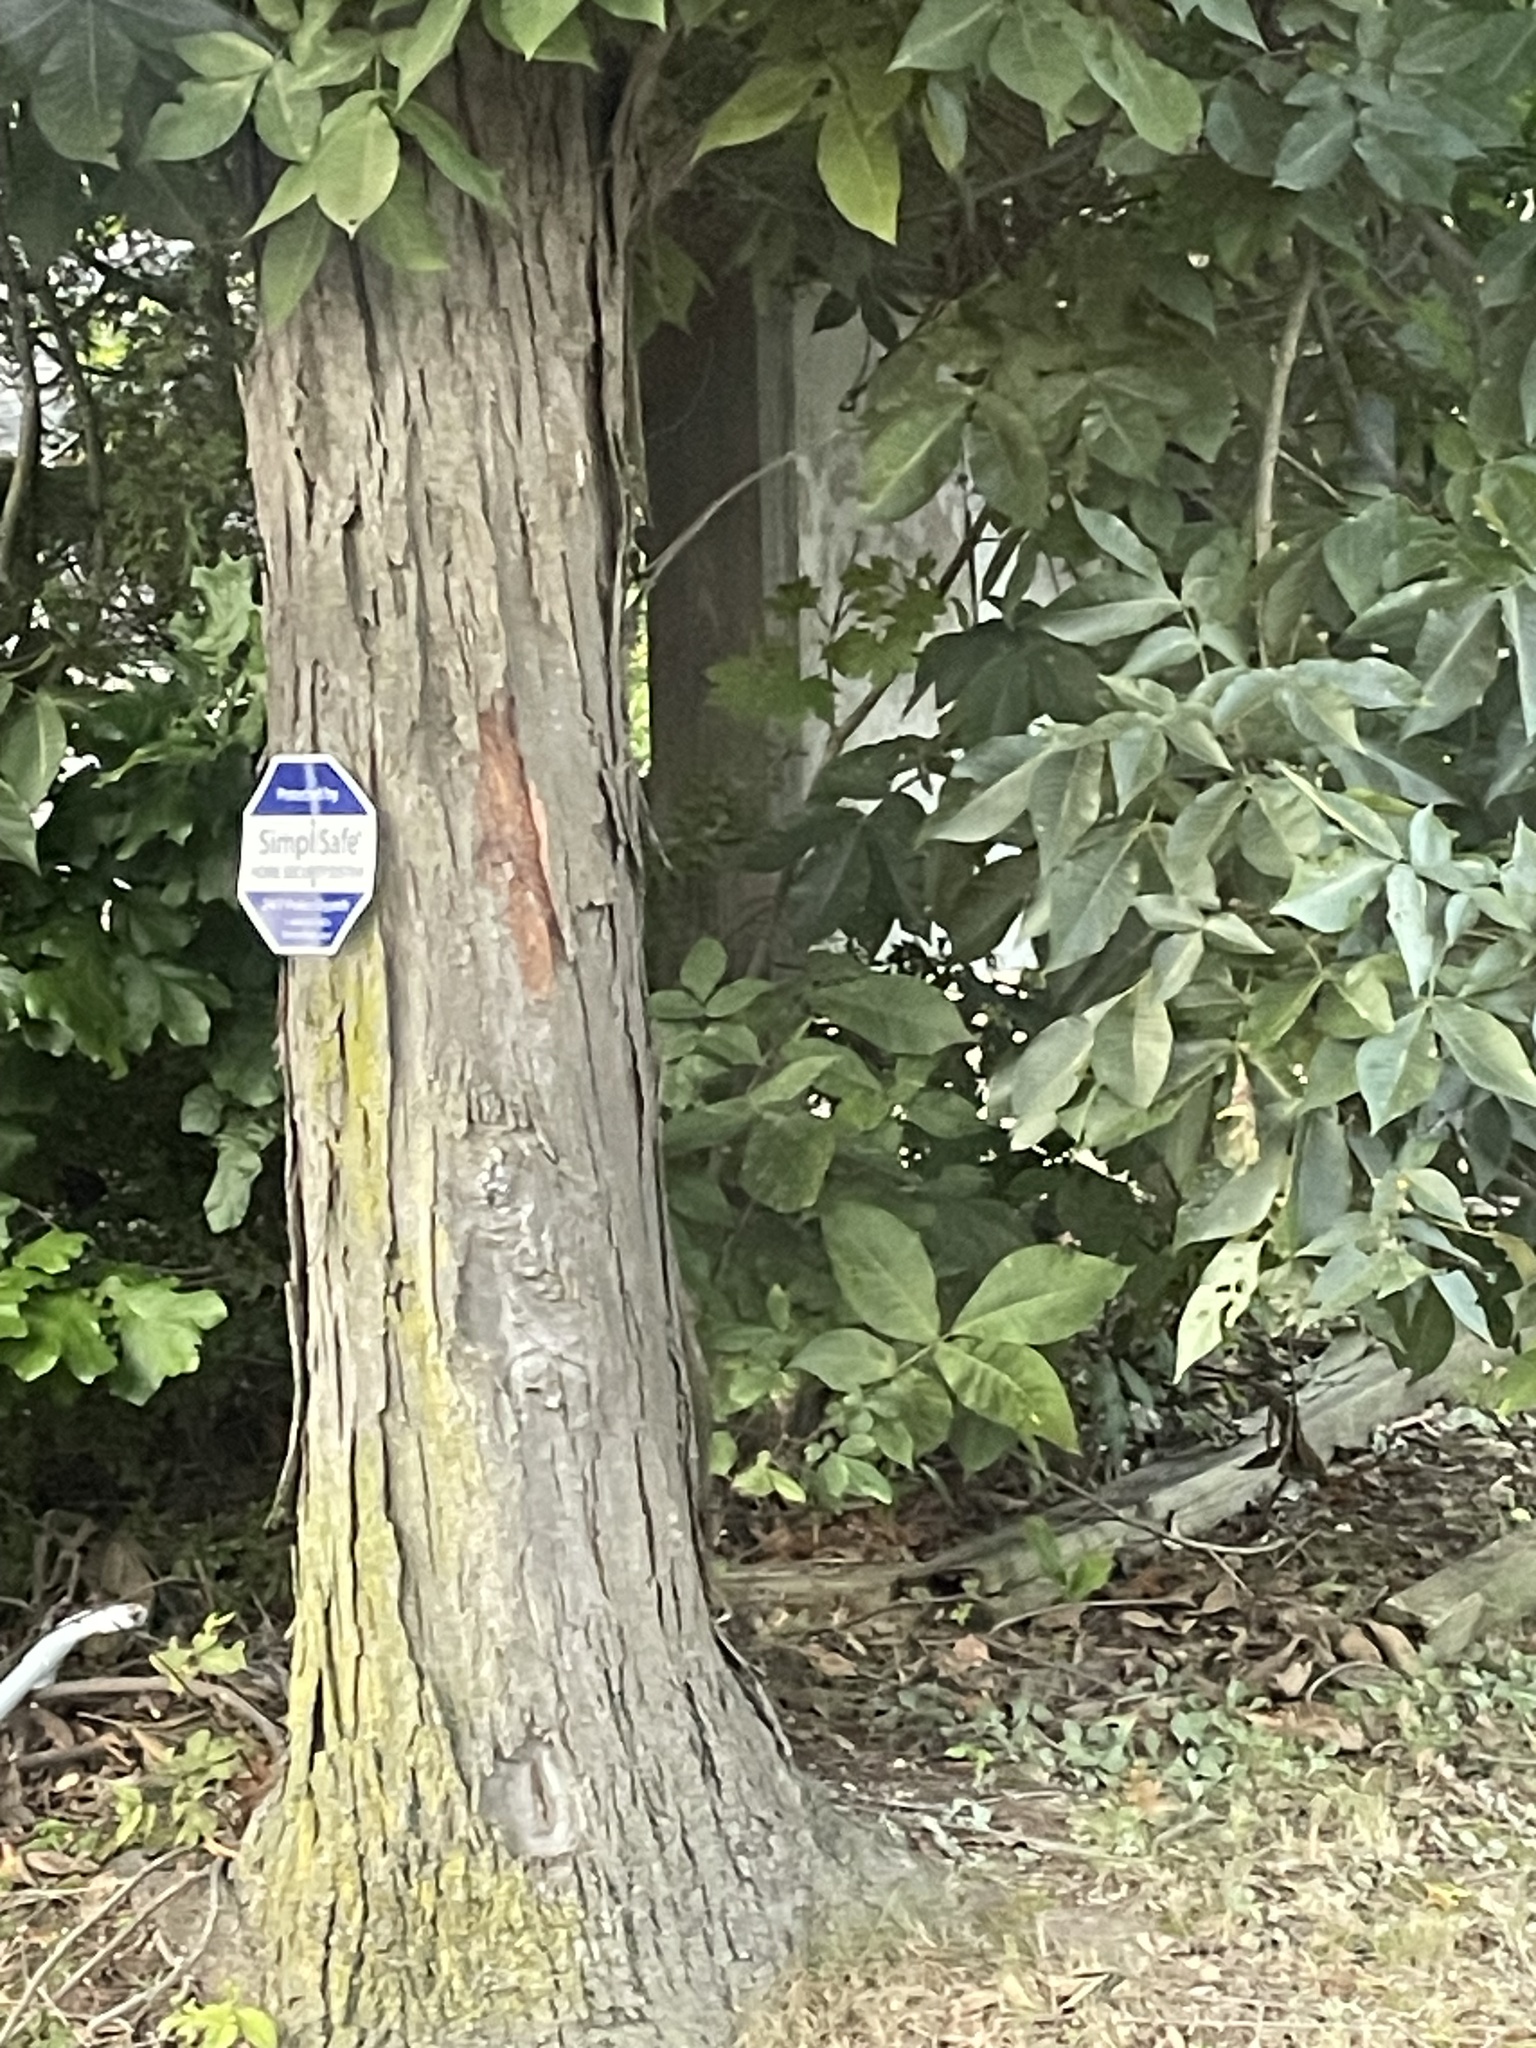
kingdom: Plantae
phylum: Tracheophyta
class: Magnoliopsida
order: Fagales
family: Juglandaceae
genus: Carya
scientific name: Carya ovata
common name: Shagbark hickory
